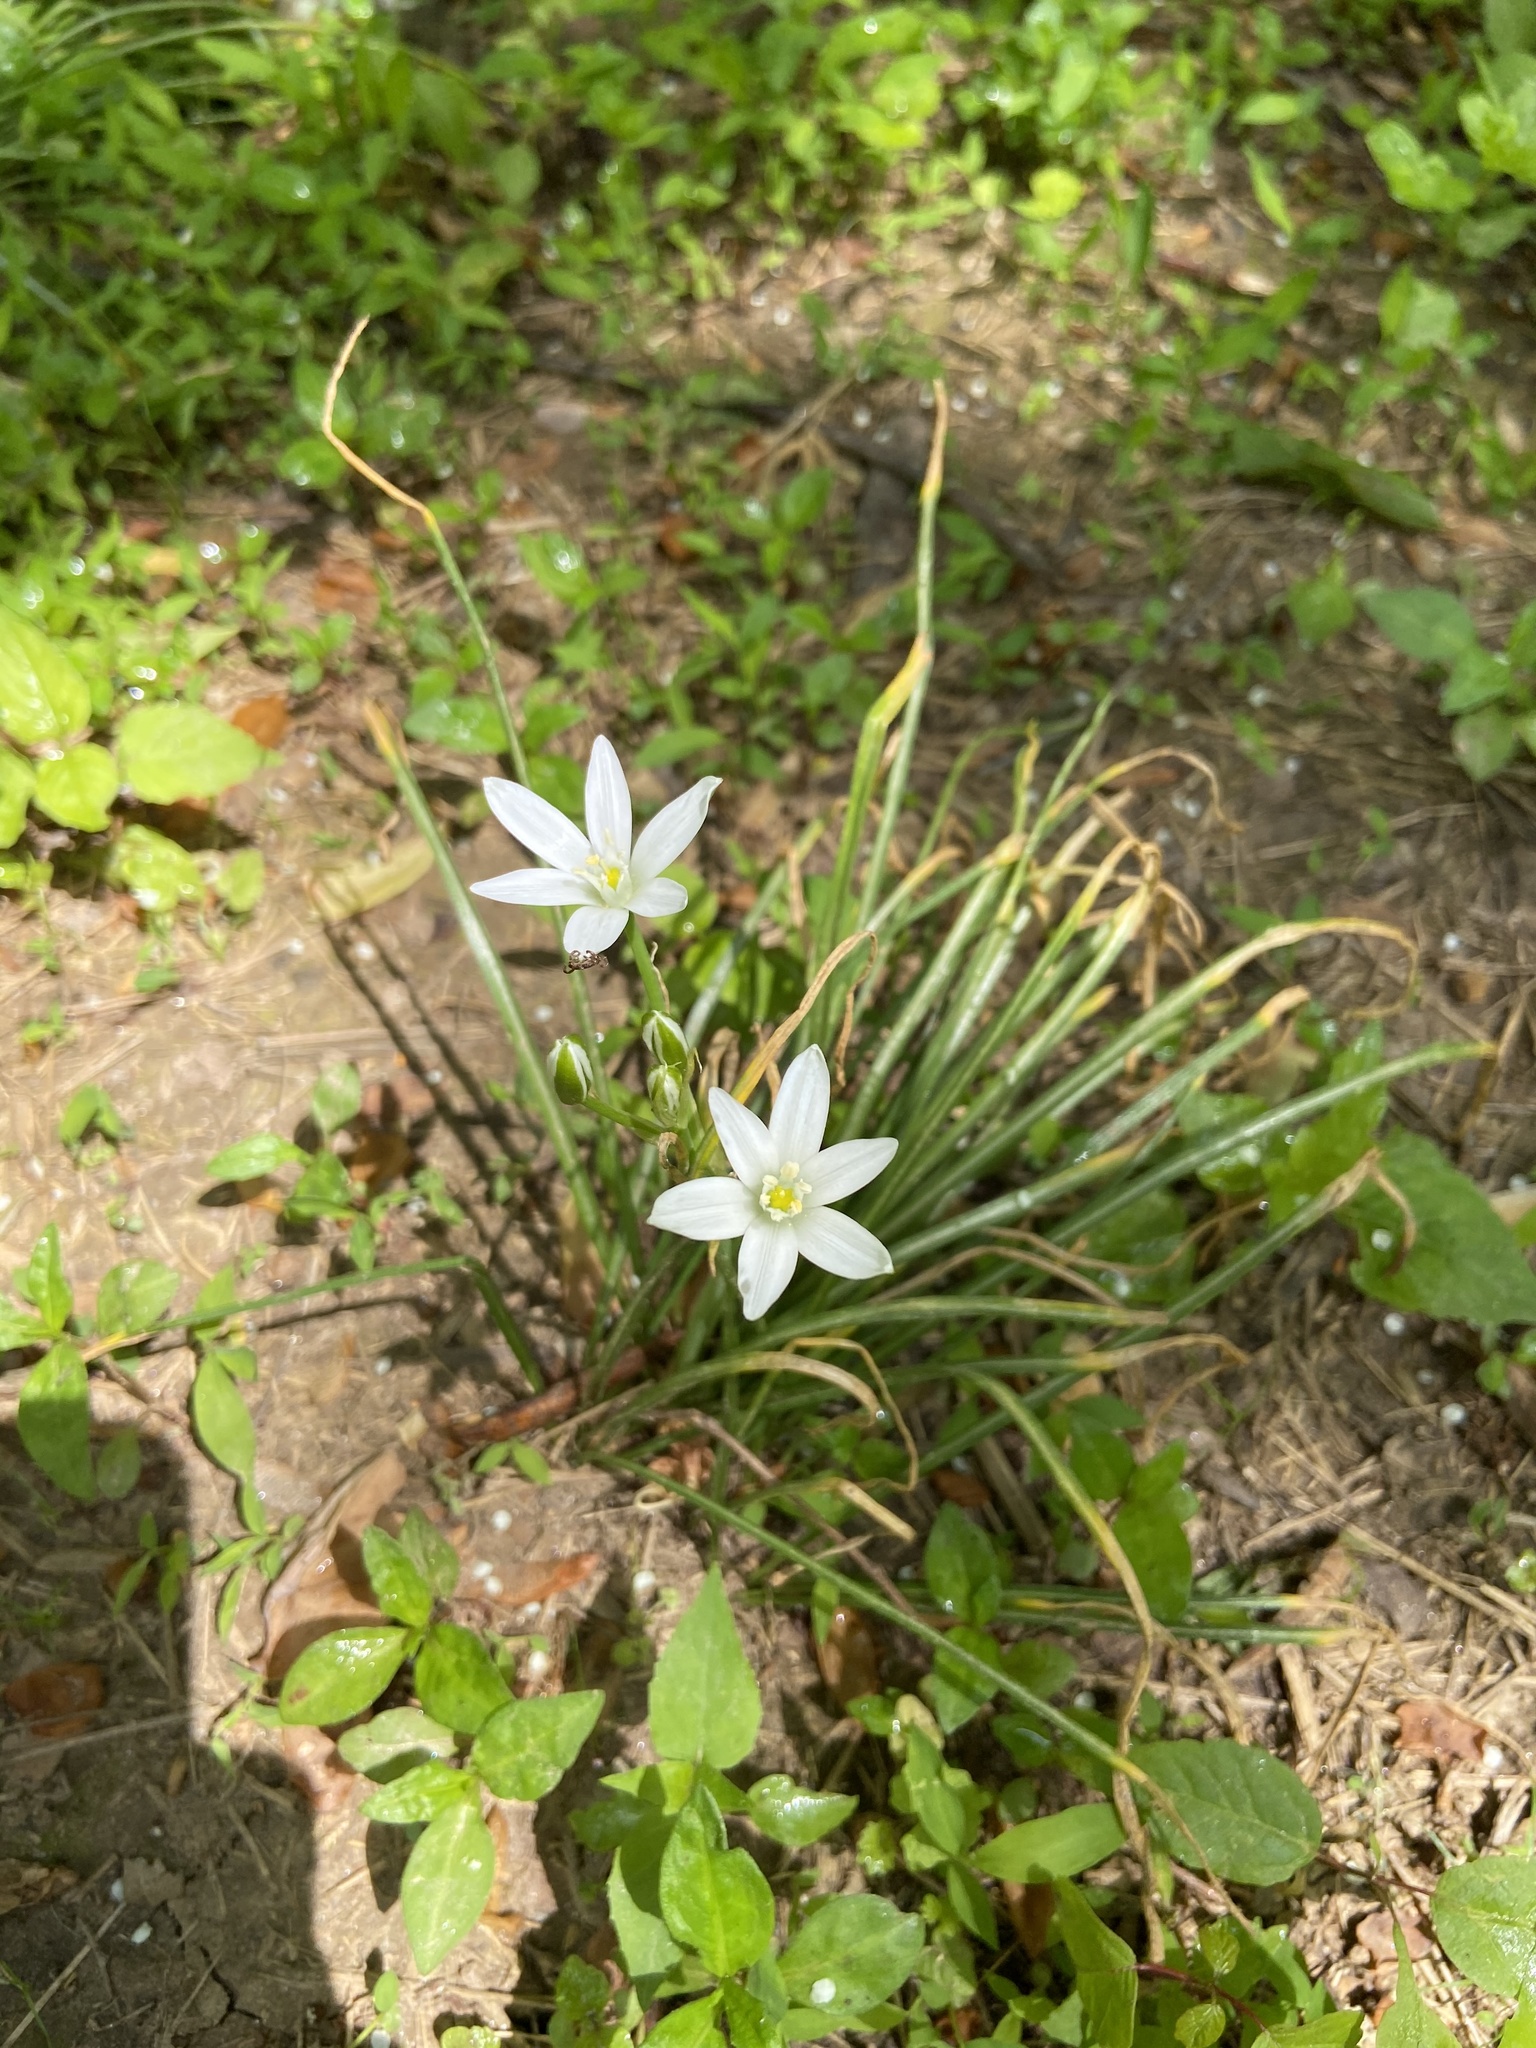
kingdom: Plantae
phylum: Tracheophyta
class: Liliopsida
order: Asparagales
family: Asparagaceae
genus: Ornithogalum
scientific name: Ornithogalum umbellatum
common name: Garden star-of-bethlehem
